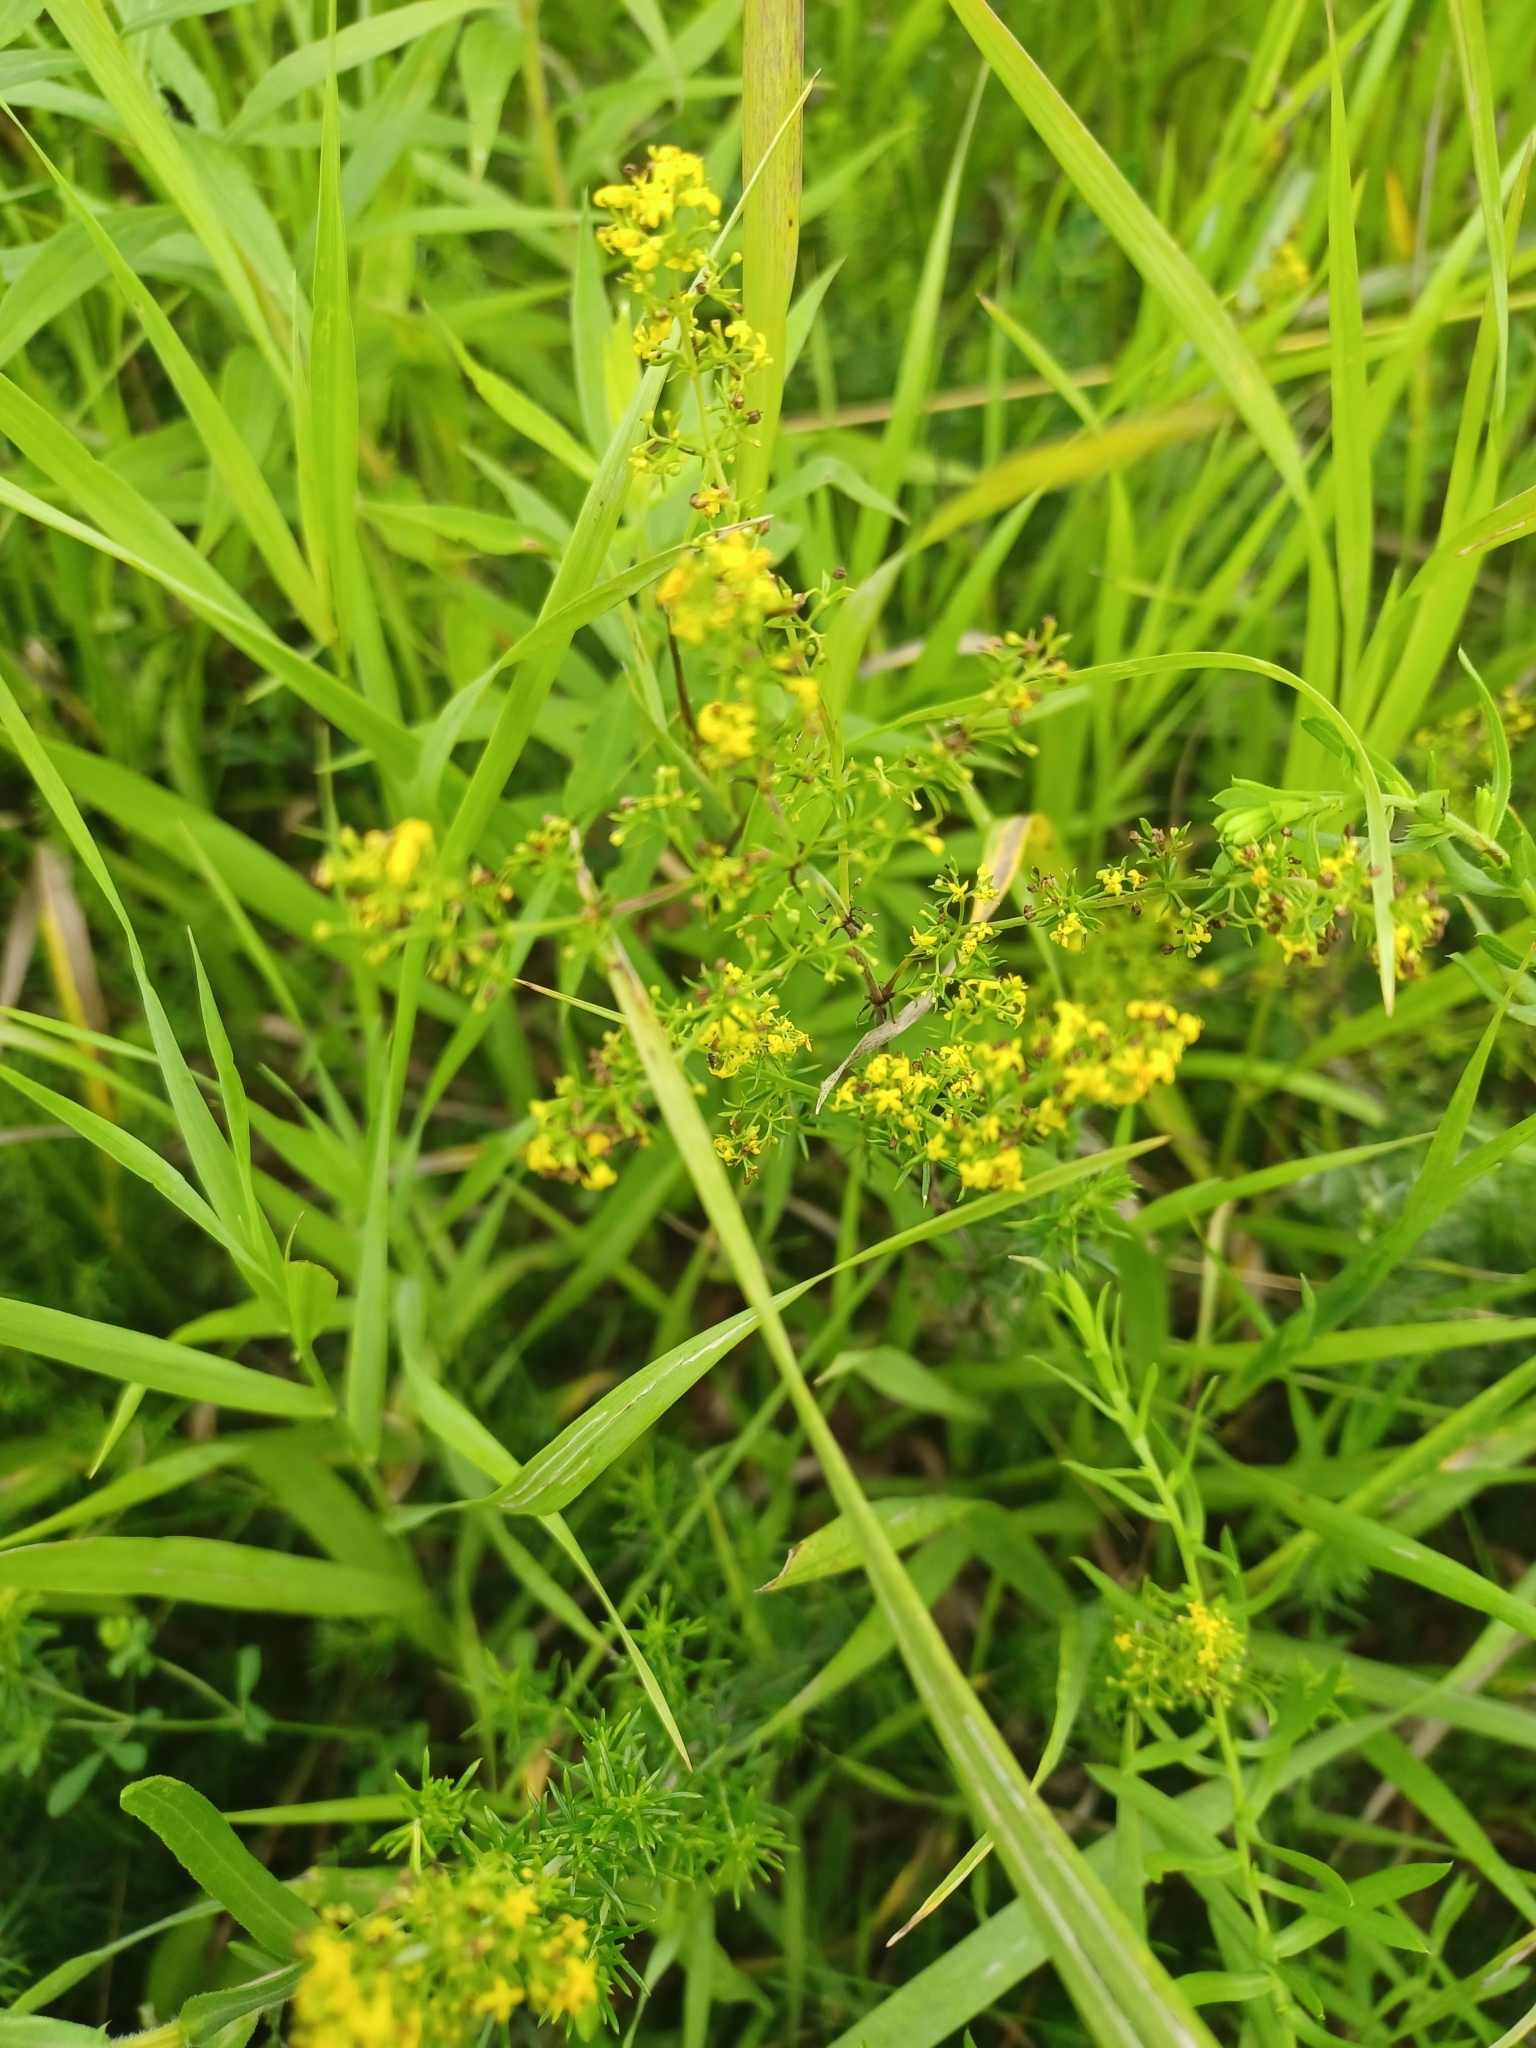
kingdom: Plantae
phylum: Tracheophyta
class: Magnoliopsida
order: Gentianales
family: Rubiaceae
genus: Galium
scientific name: Galium verum
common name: Lady's bedstraw
